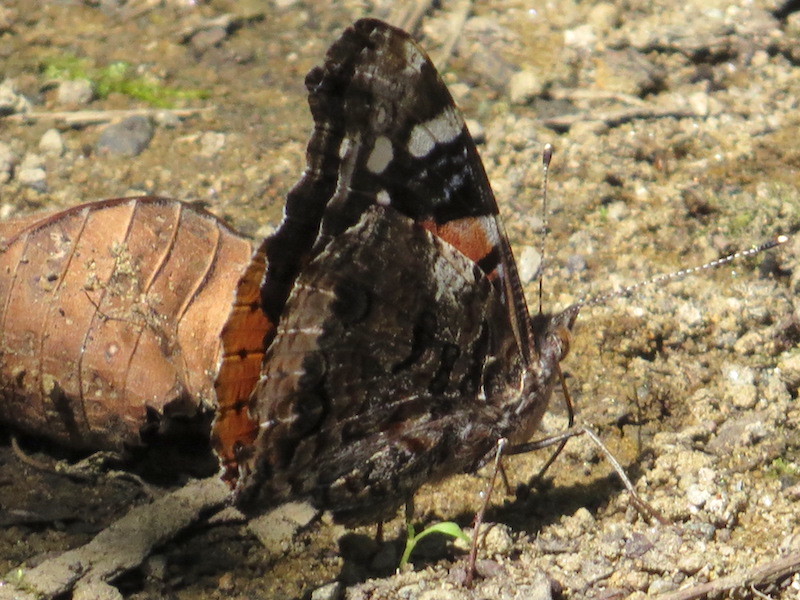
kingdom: Animalia
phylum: Arthropoda
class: Insecta
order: Lepidoptera
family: Nymphalidae
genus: Vanessa
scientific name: Vanessa atalanta
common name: Red admiral
